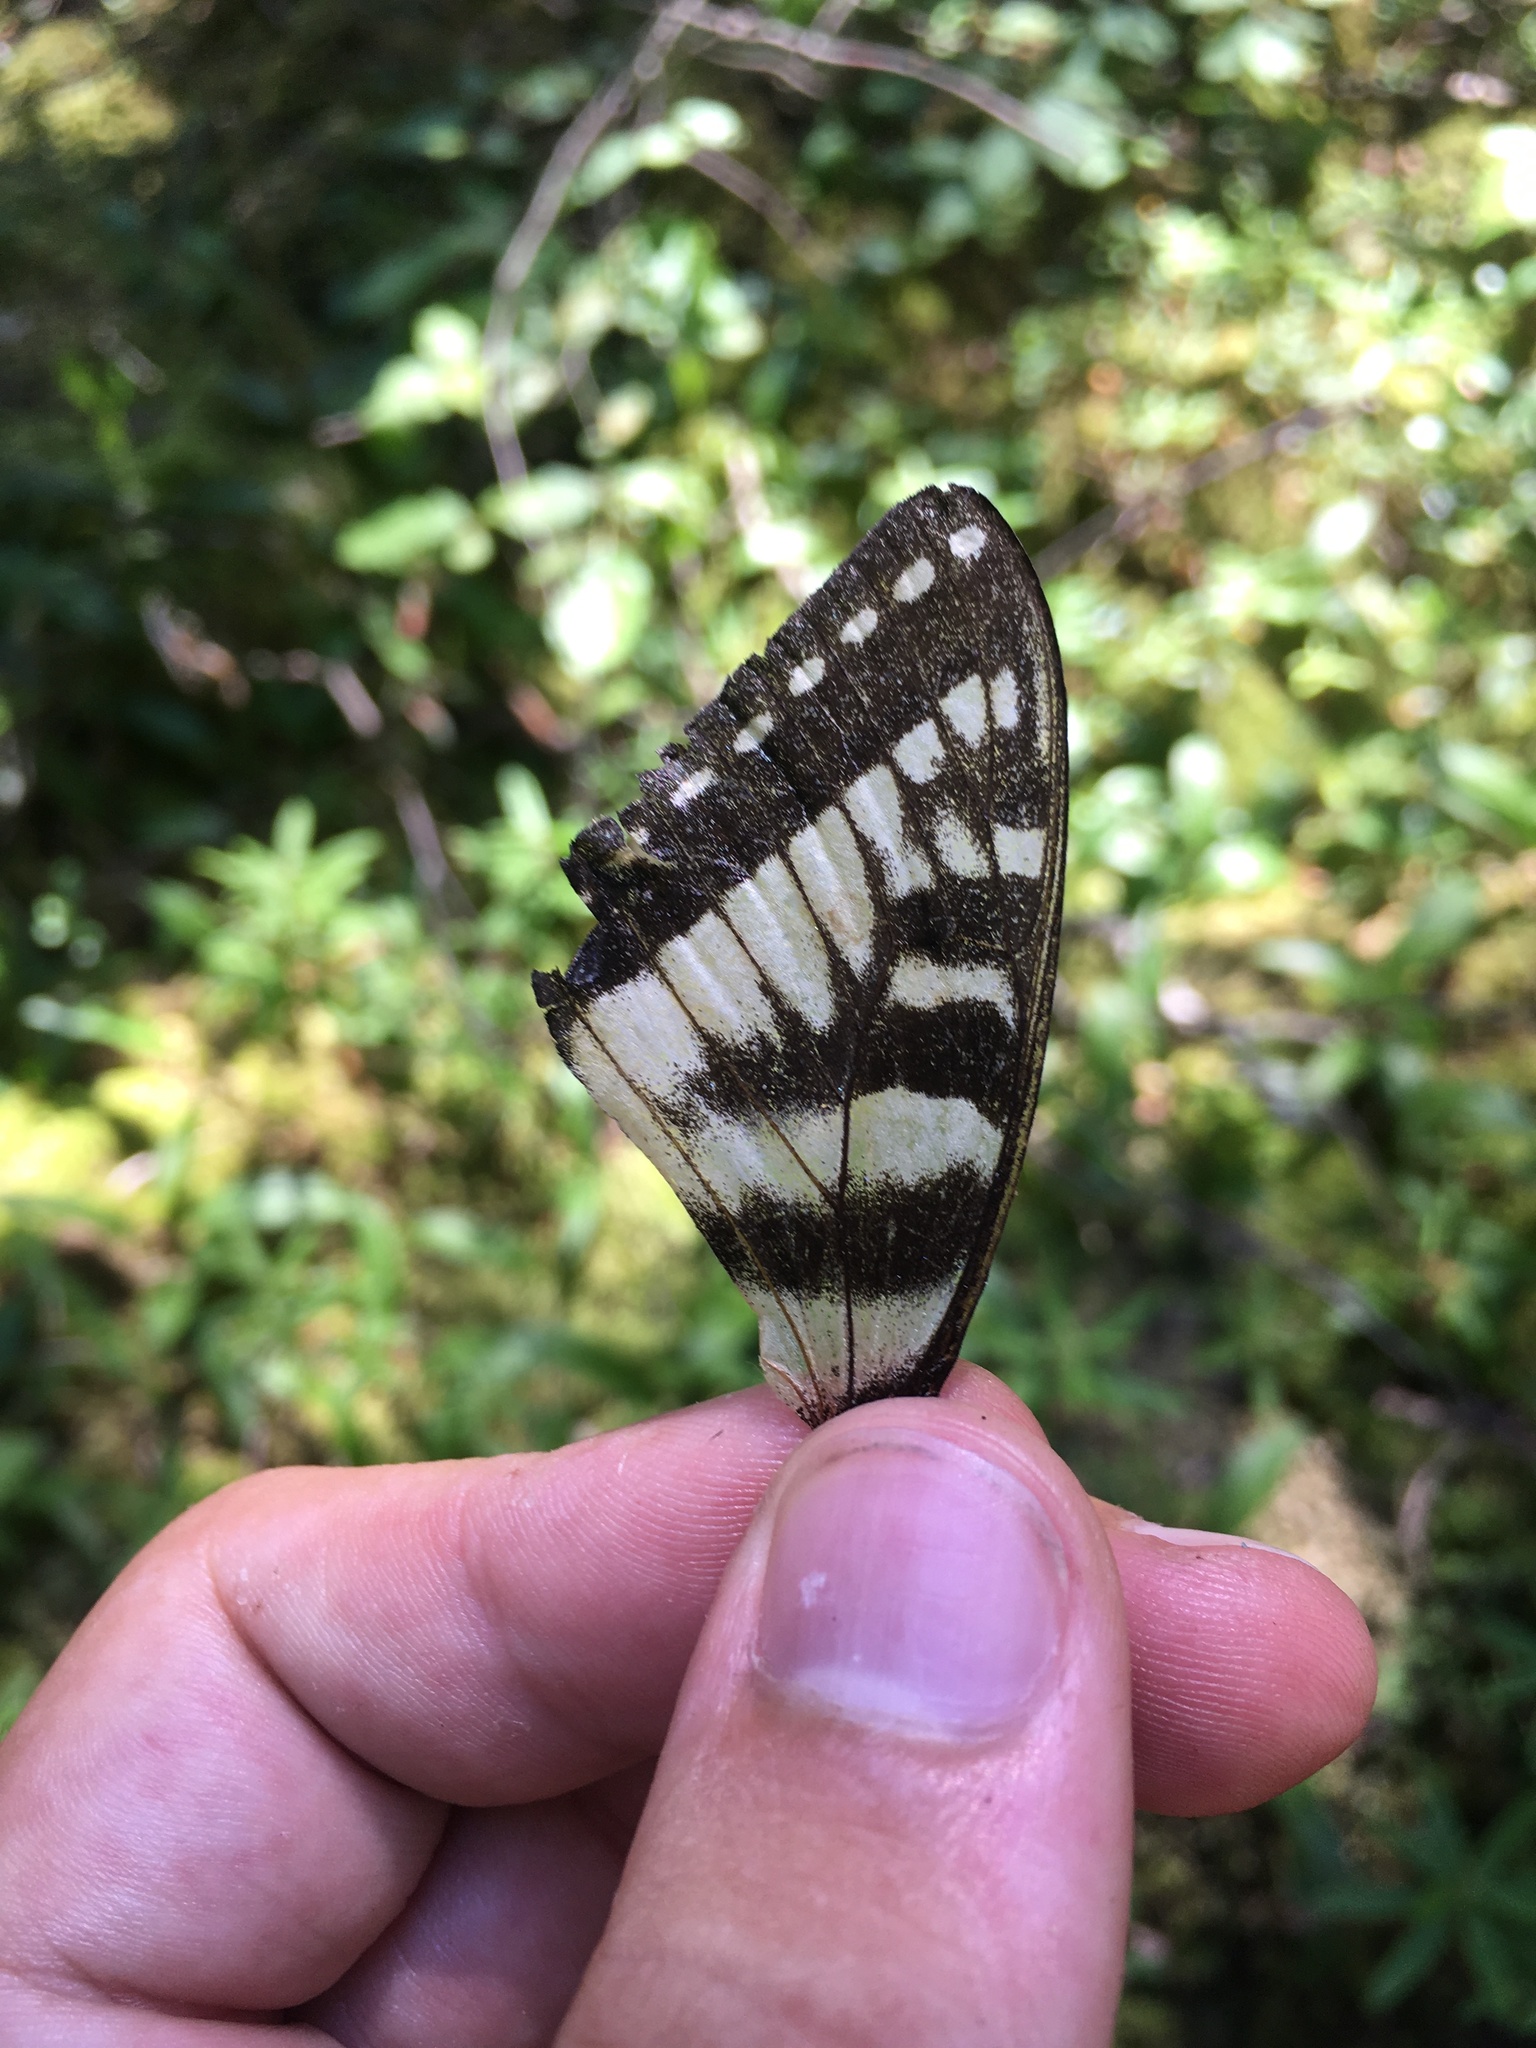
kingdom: Animalia
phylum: Arthropoda
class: Insecta
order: Lepidoptera
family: Papilionidae
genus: Papilio
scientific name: Papilio canadensis
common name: Canadian tiger swallowtail
